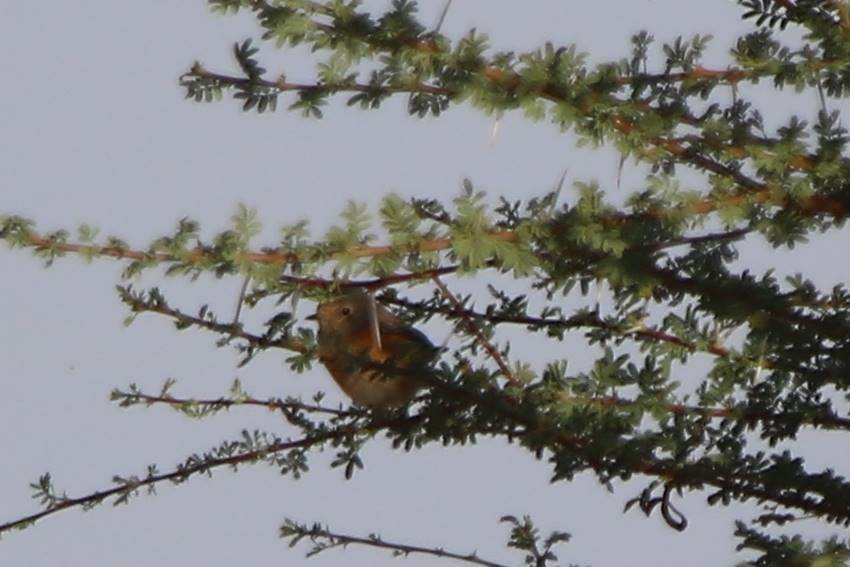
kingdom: Animalia
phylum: Chordata
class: Aves
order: Passeriformes
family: Muscicapidae
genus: Phoenicurus
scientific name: Phoenicurus phoenicurus
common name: Common redstart
